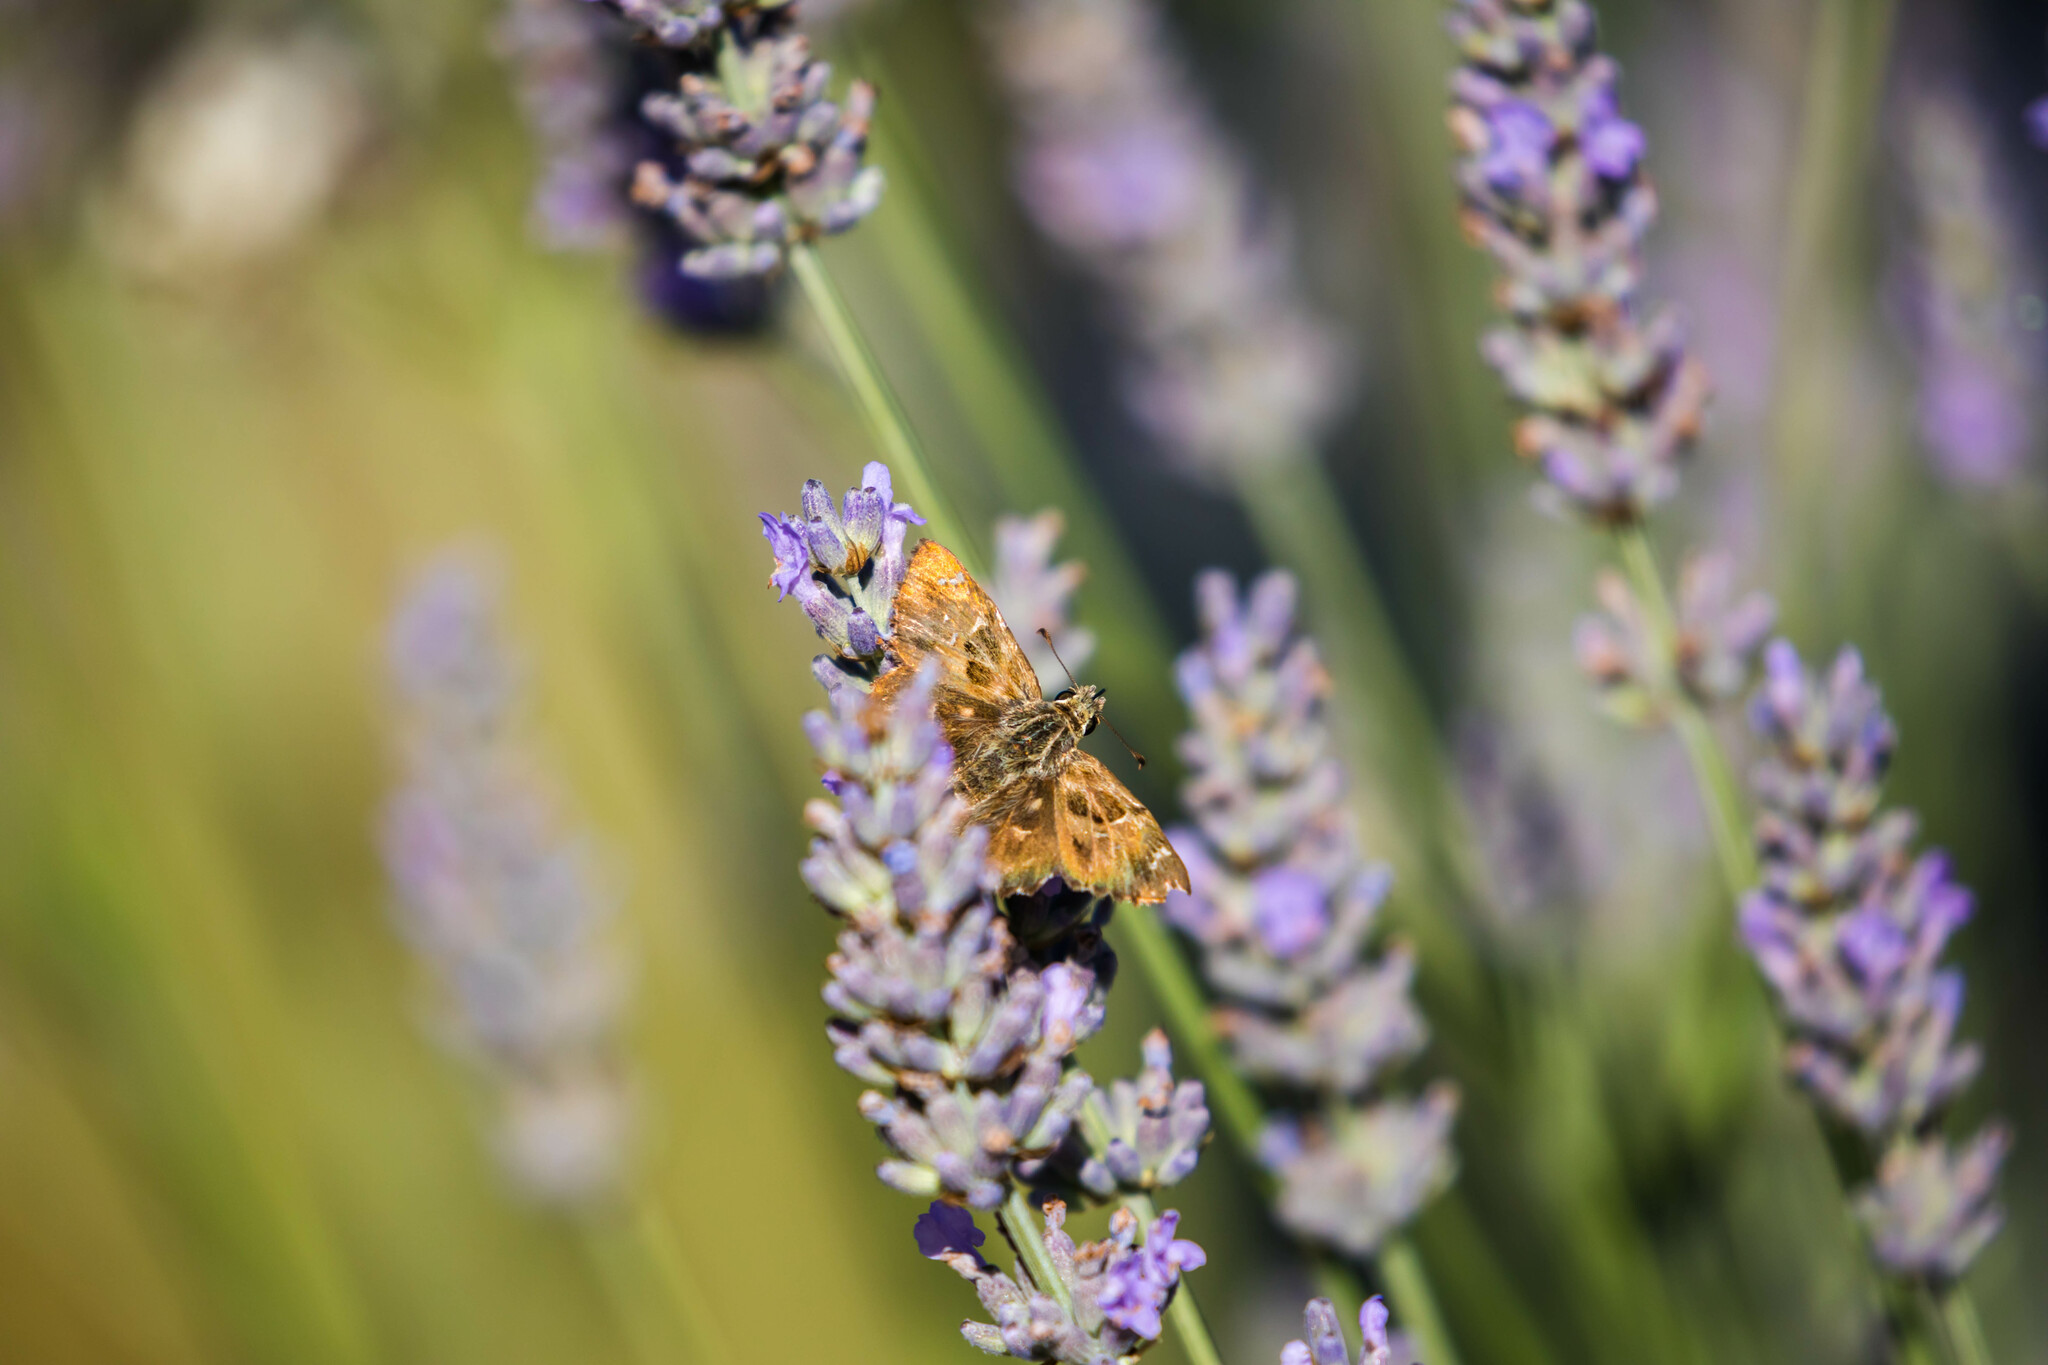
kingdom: Animalia
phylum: Arthropoda
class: Insecta
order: Lepidoptera
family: Hesperiidae
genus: Carcharodus
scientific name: Carcharodus alceae
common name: Mallow skipper
